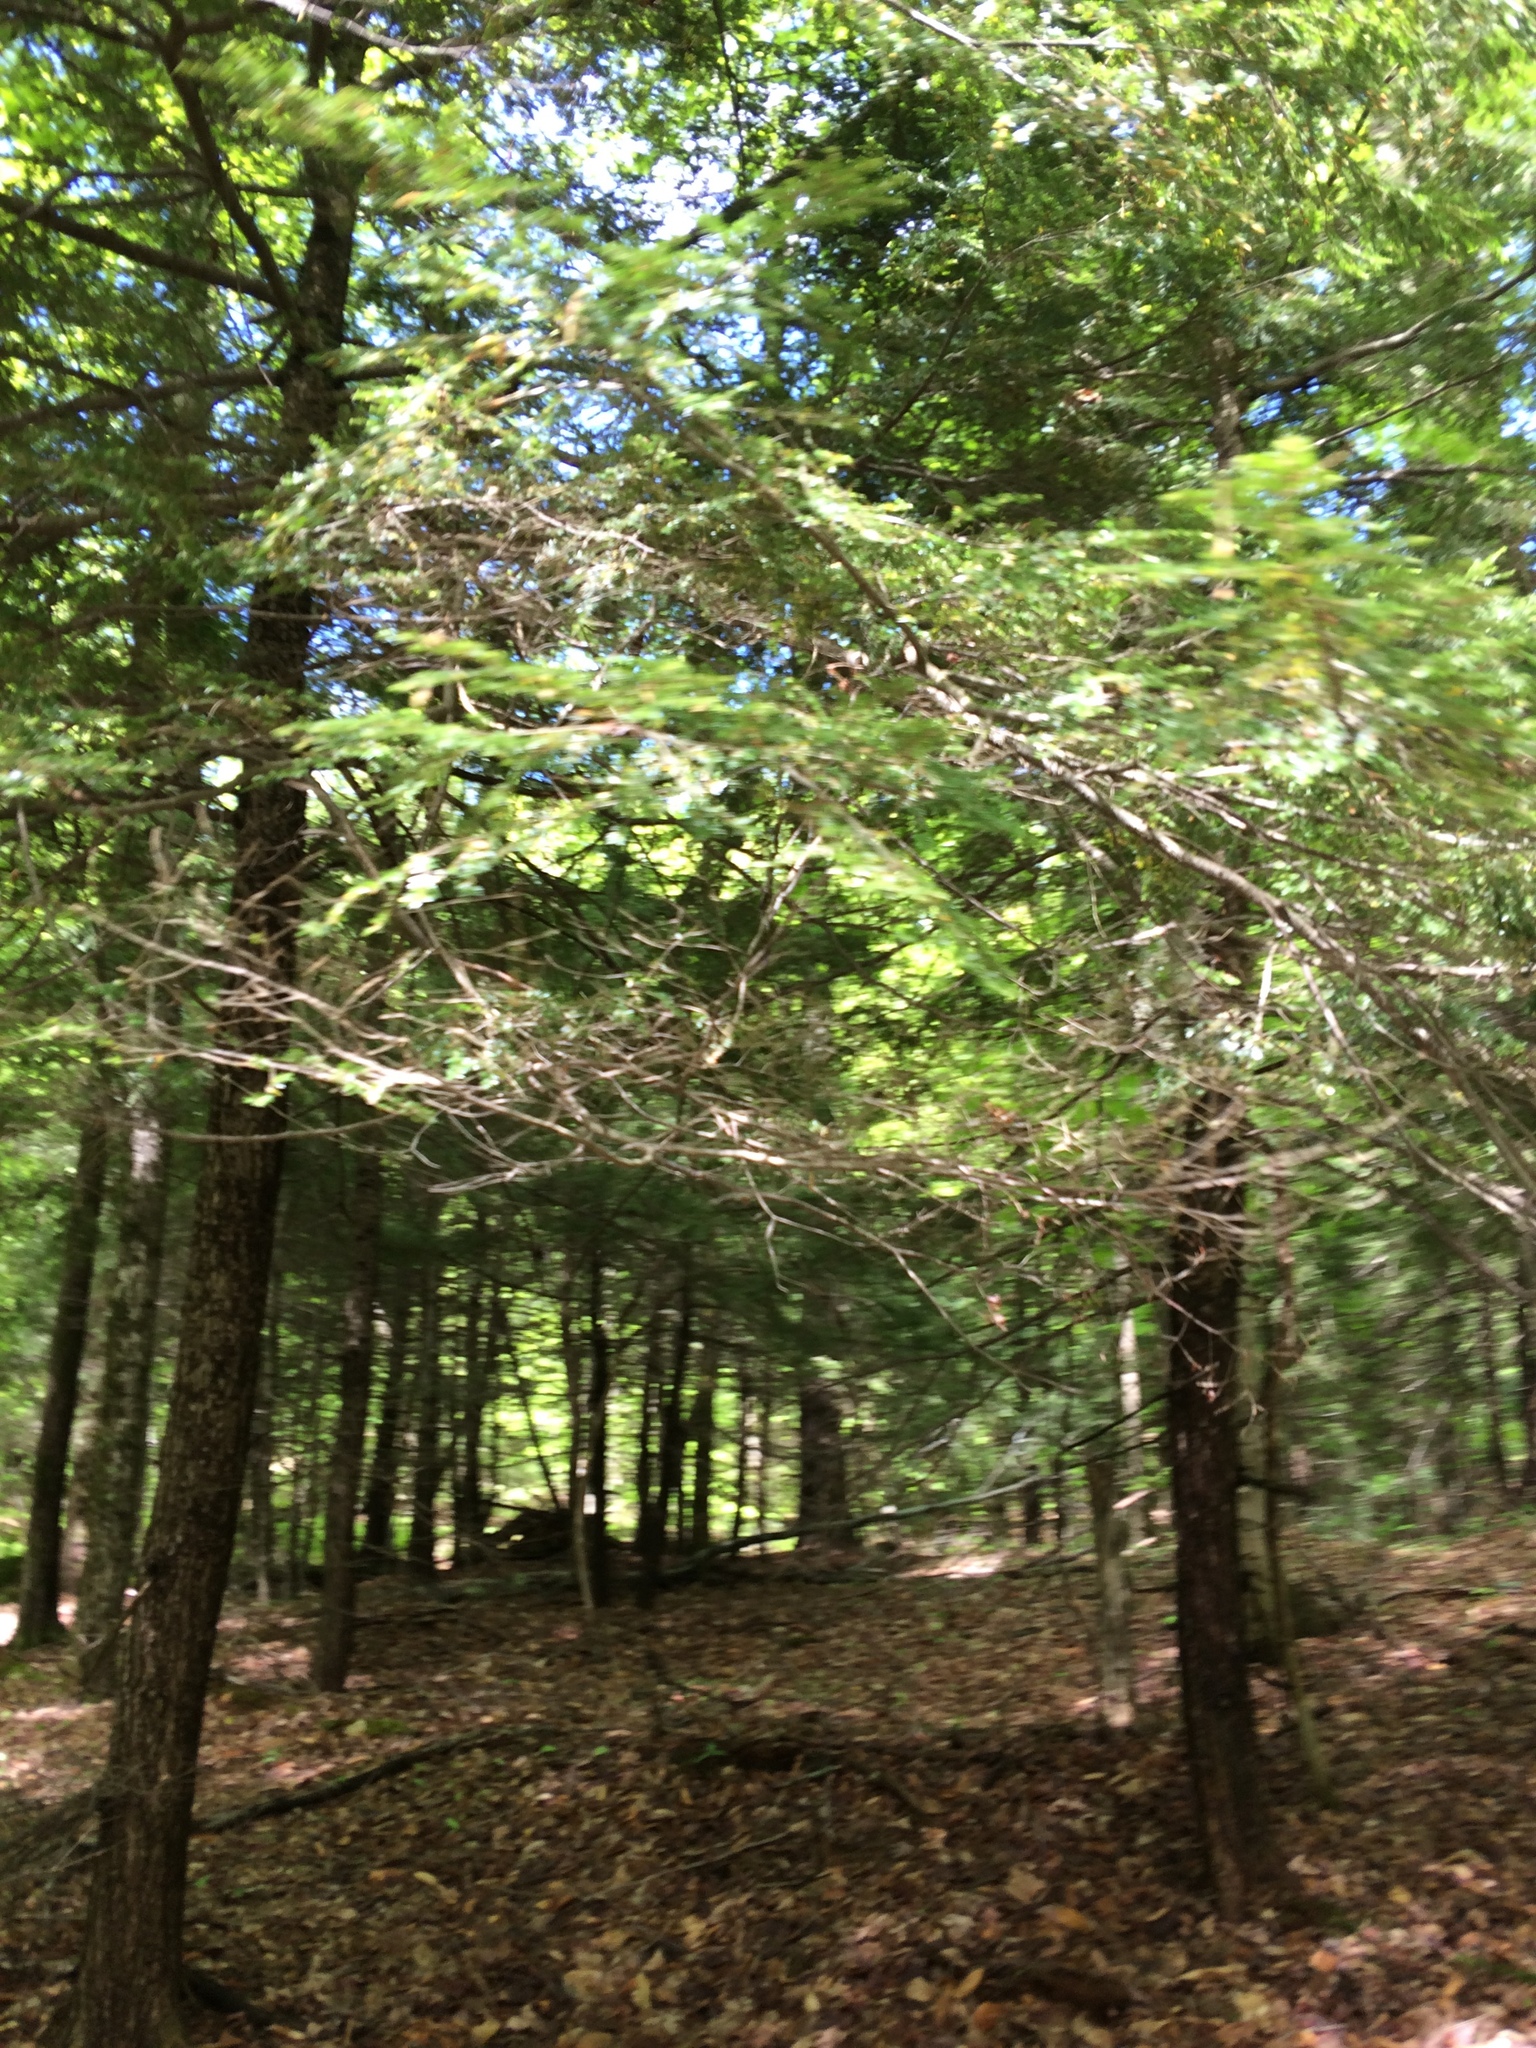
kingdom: Plantae
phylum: Tracheophyta
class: Pinopsida
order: Pinales
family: Pinaceae
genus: Tsuga
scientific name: Tsuga canadensis
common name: Eastern hemlock
